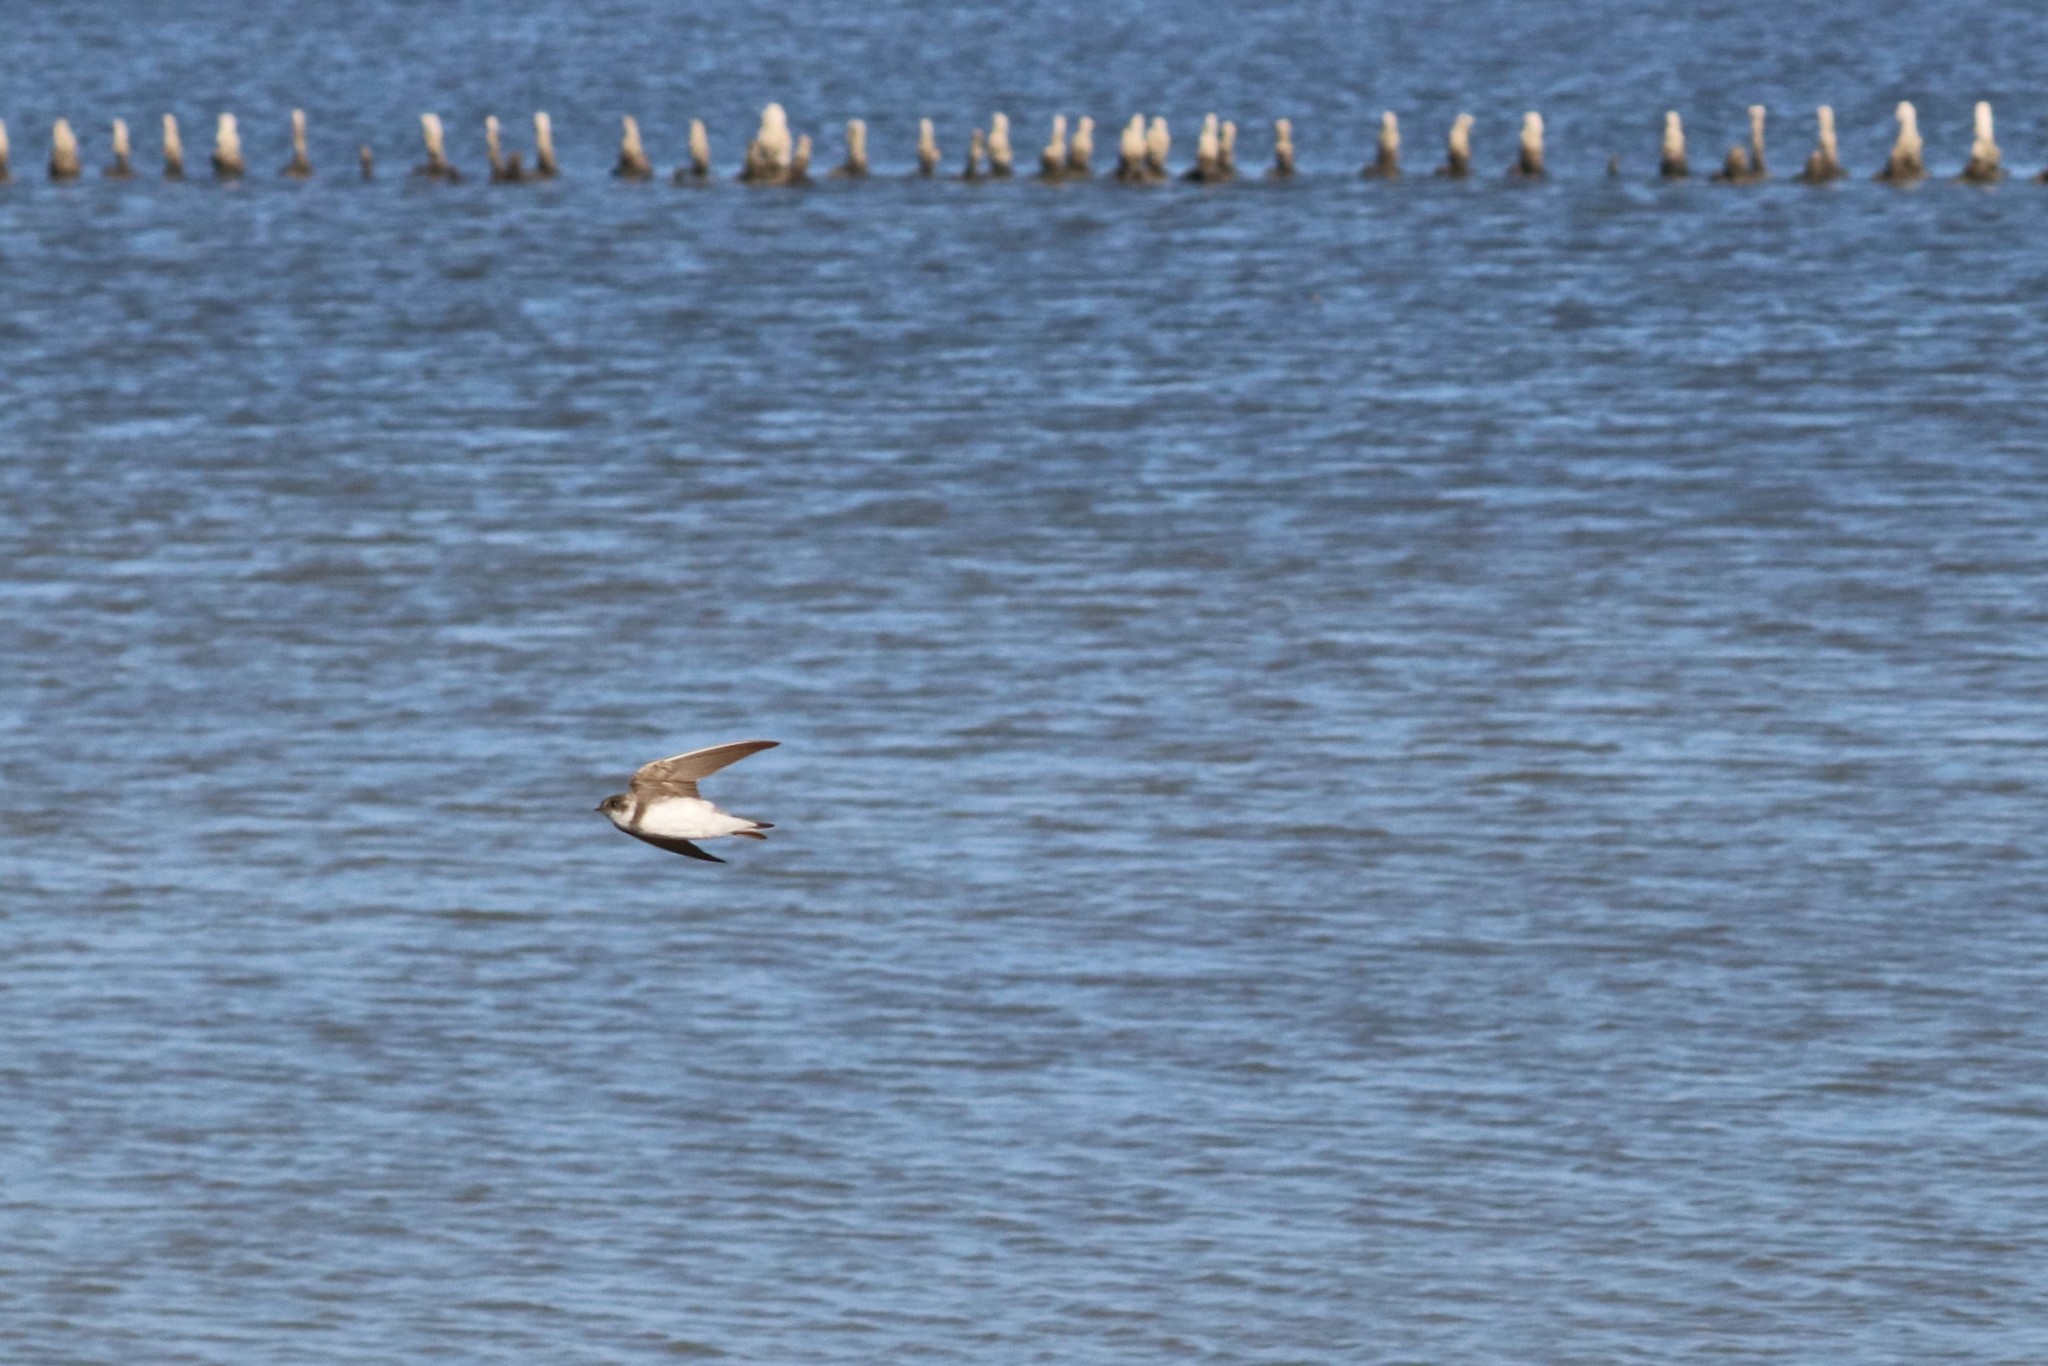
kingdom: Animalia
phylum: Chordata
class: Aves
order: Passeriformes
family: Hirundinidae
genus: Riparia
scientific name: Riparia riparia
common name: Sand martin
